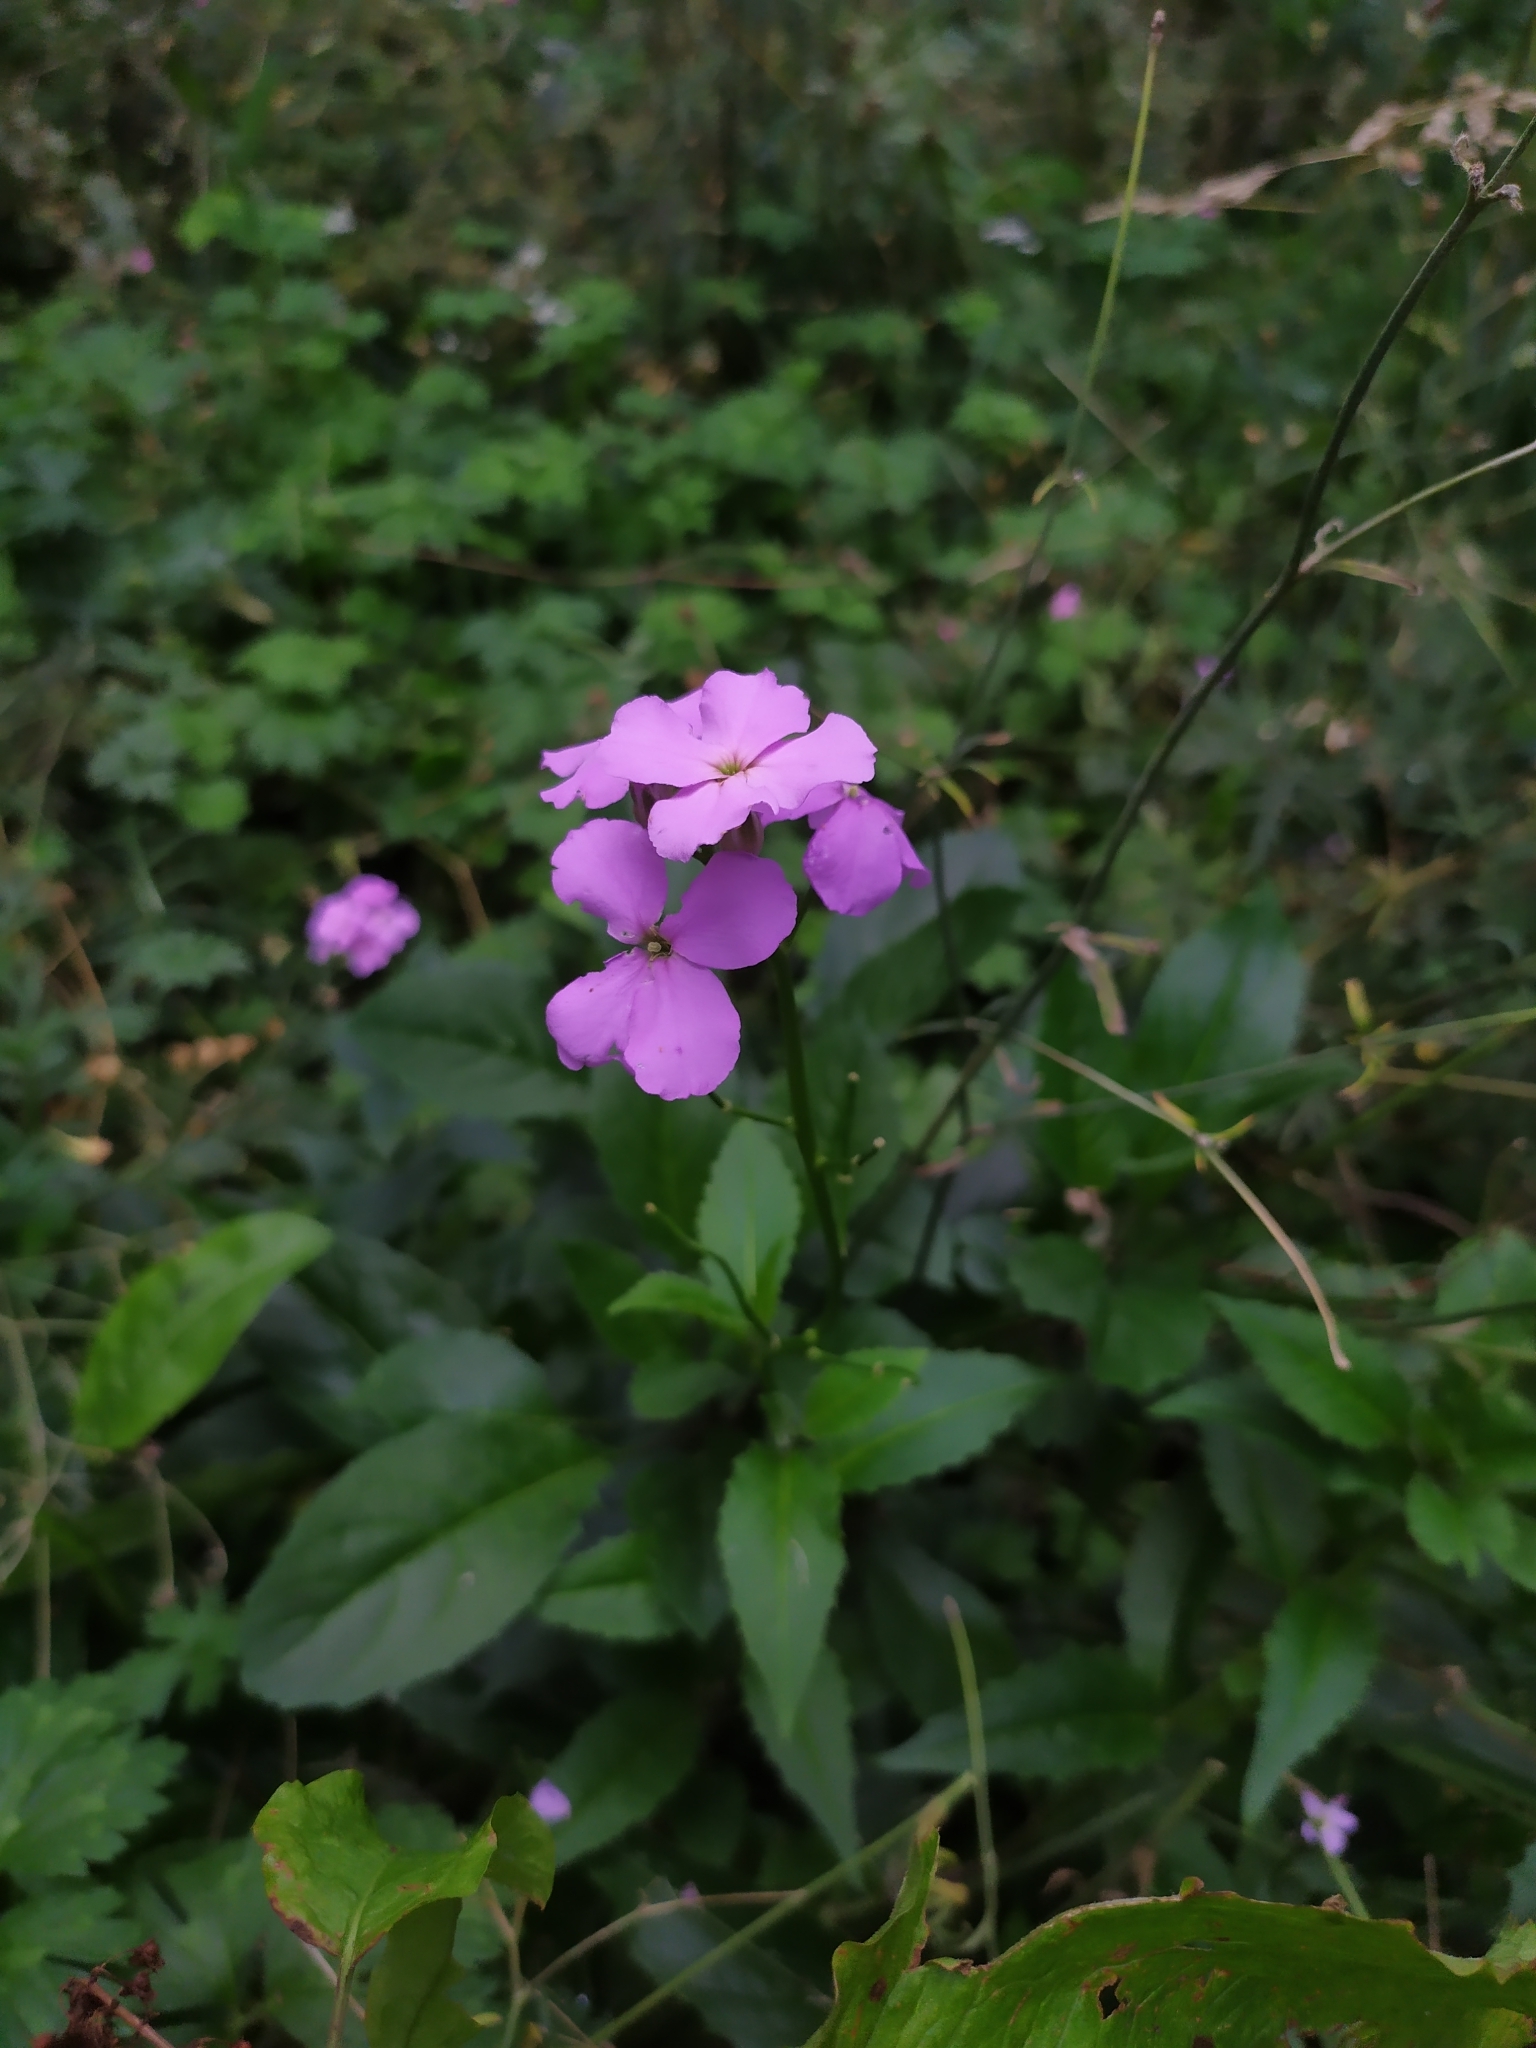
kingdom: Plantae
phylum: Tracheophyta
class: Magnoliopsida
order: Brassicales
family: Brassicaceae
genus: Hesperis
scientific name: Hesperis matronalis
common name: Dame's-violet
